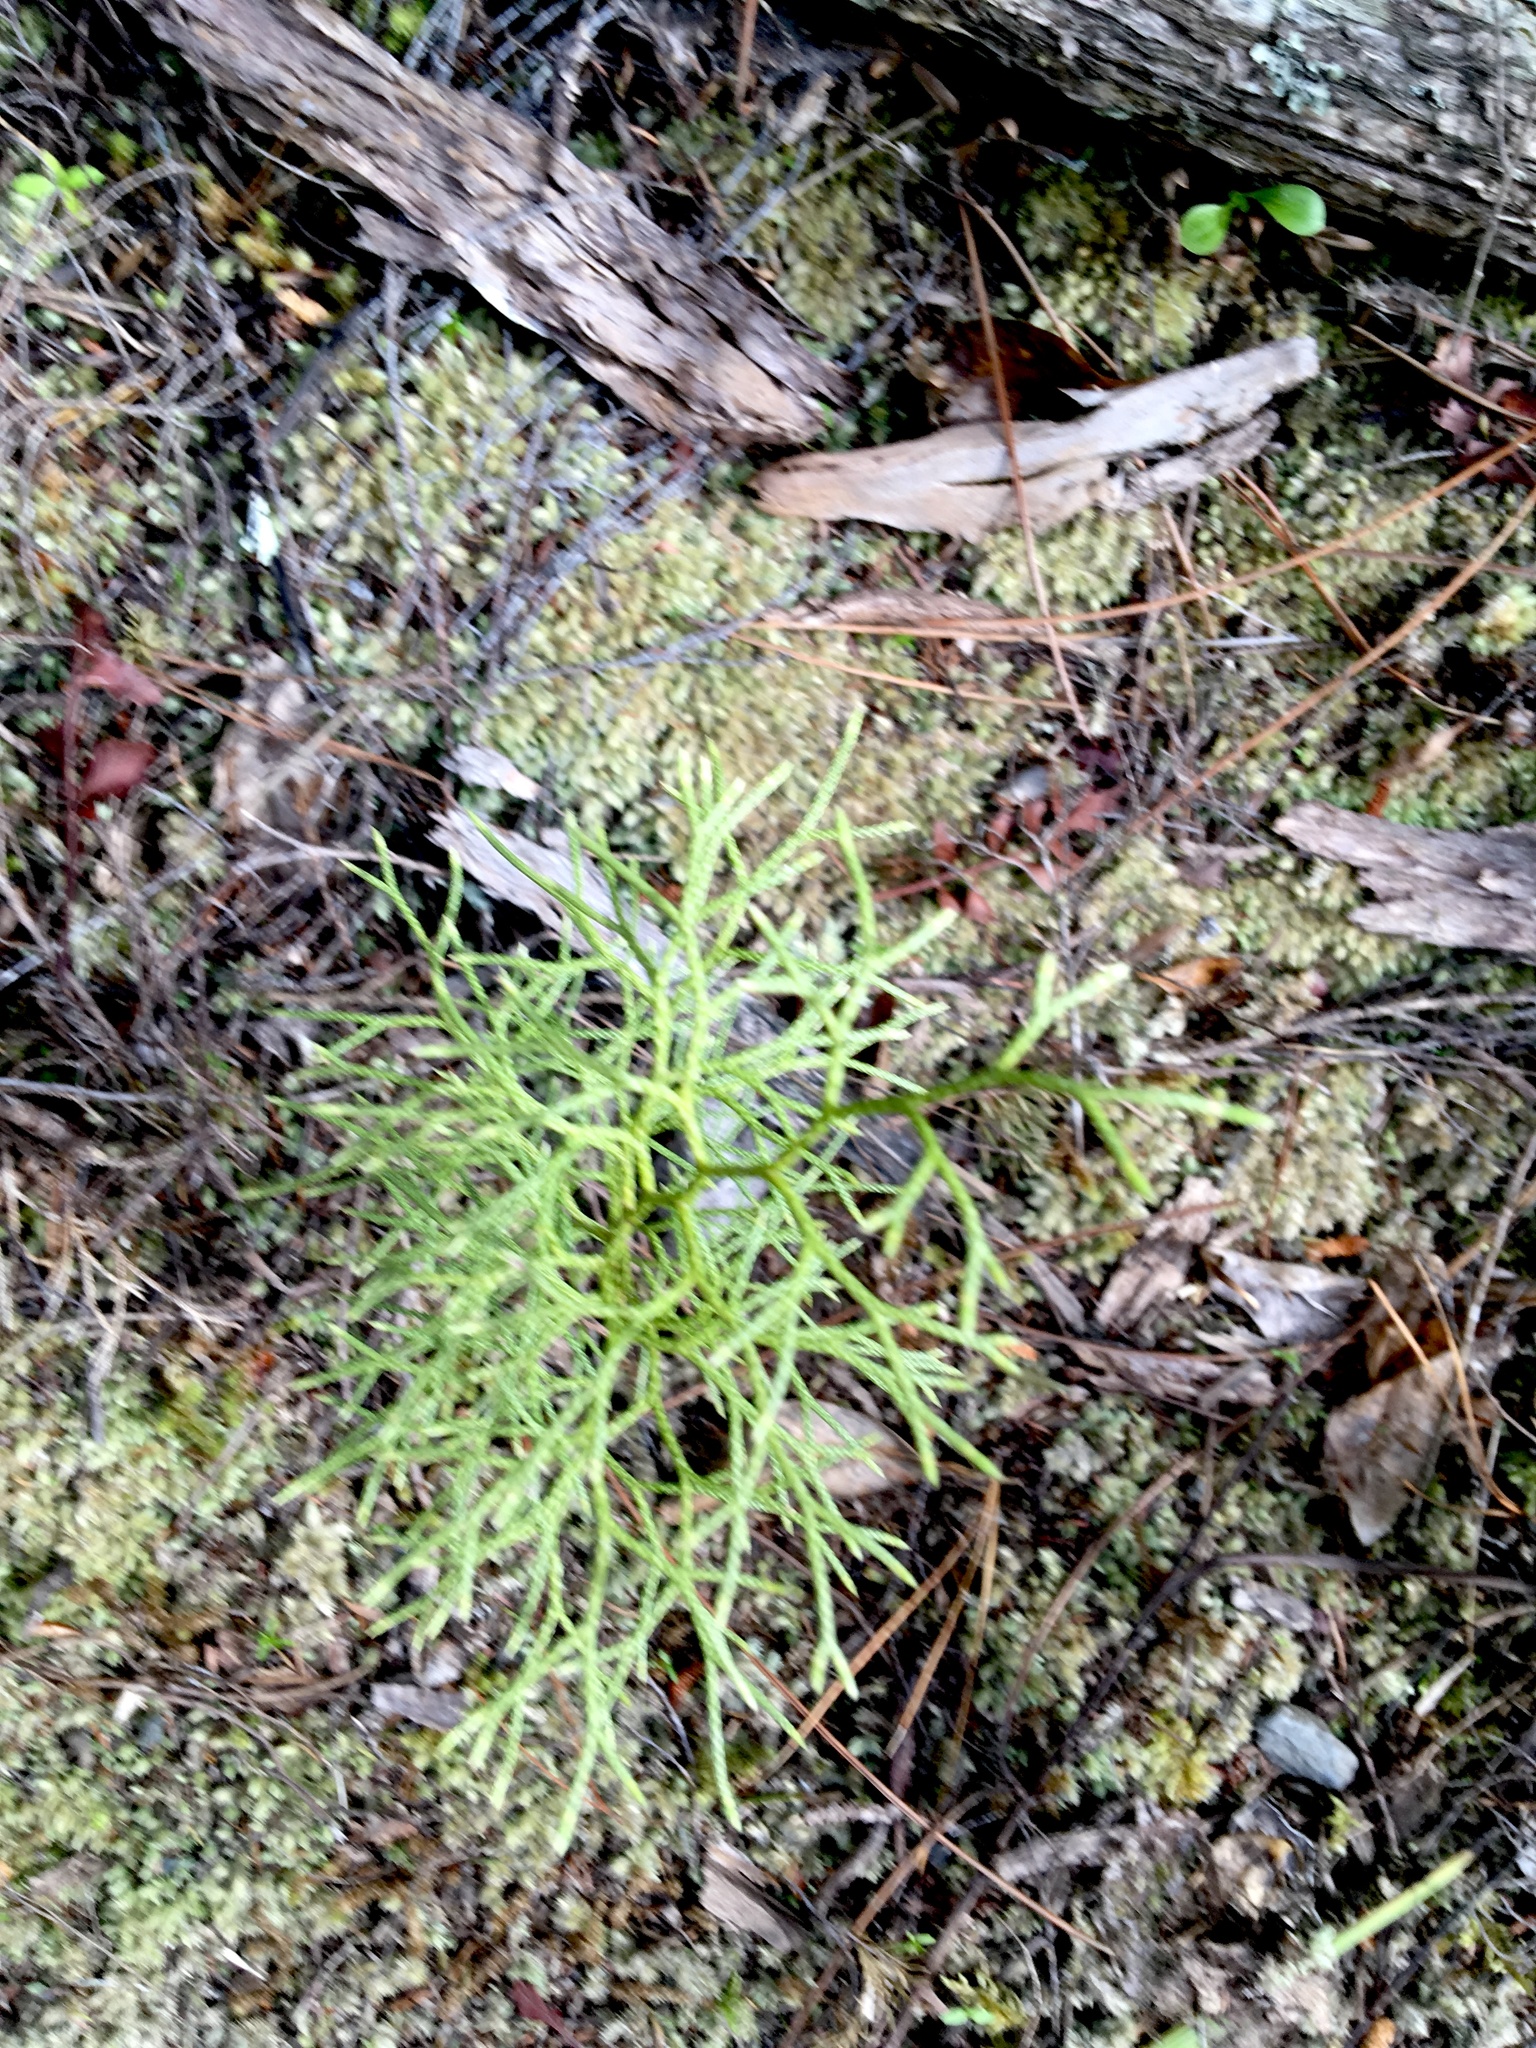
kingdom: Plantae
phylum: Tracheophyta
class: Lycopodiopsida
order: Lycopodiales
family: Lycopodiaceae
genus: Pseudolycopodium
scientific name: Pseudolycopodium densum
